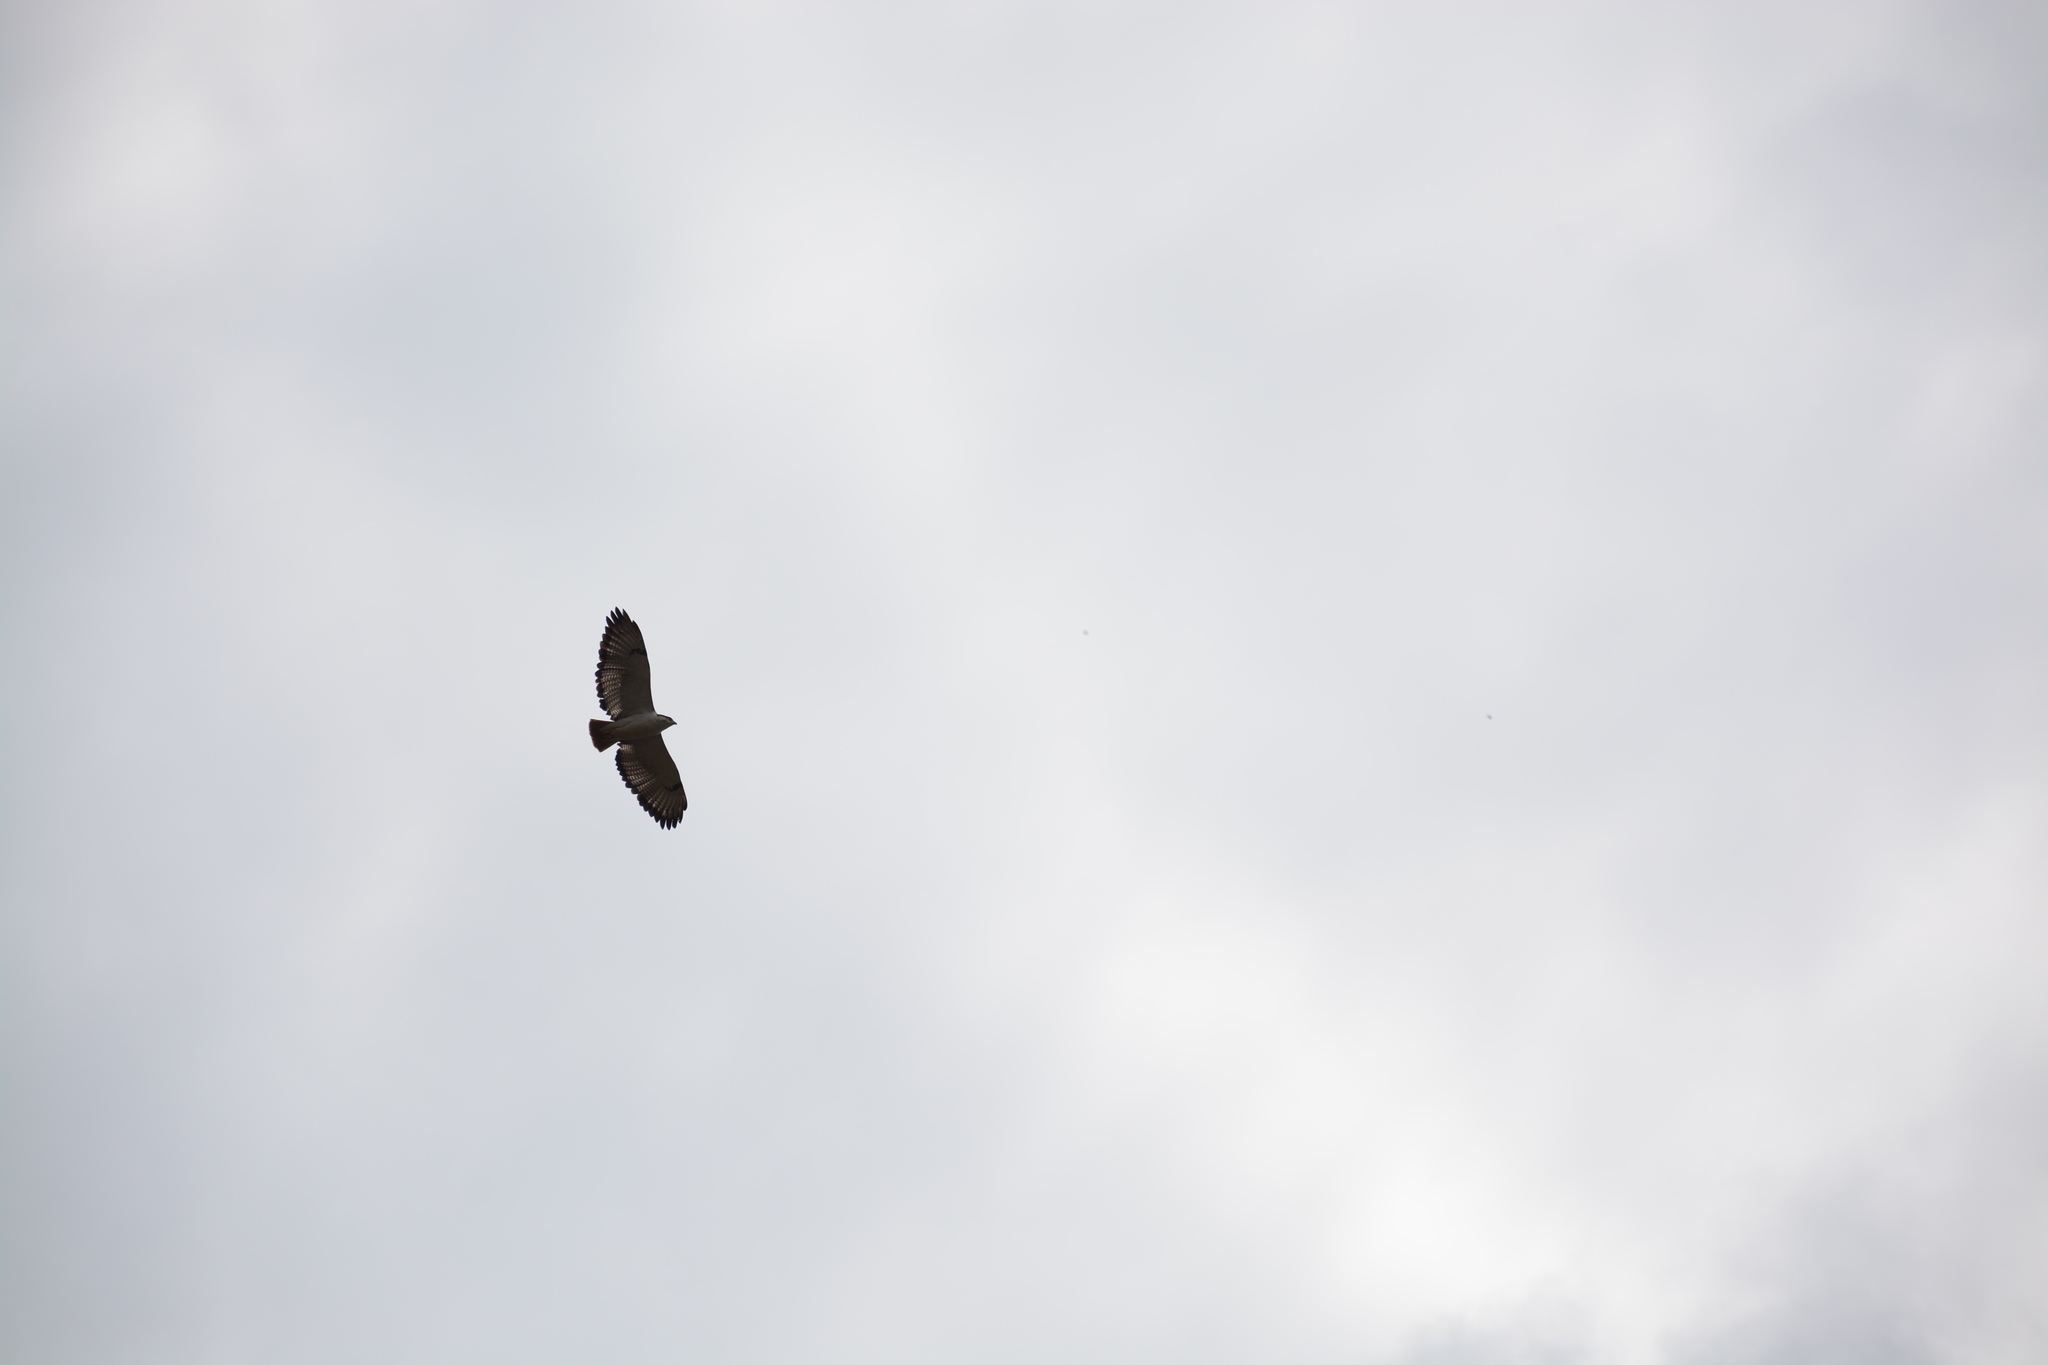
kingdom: Animalia
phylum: Chordata
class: Aves
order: Accipitriformes
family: Accipitridae
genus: Buteo
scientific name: Buteo augur
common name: Augur buzzard
